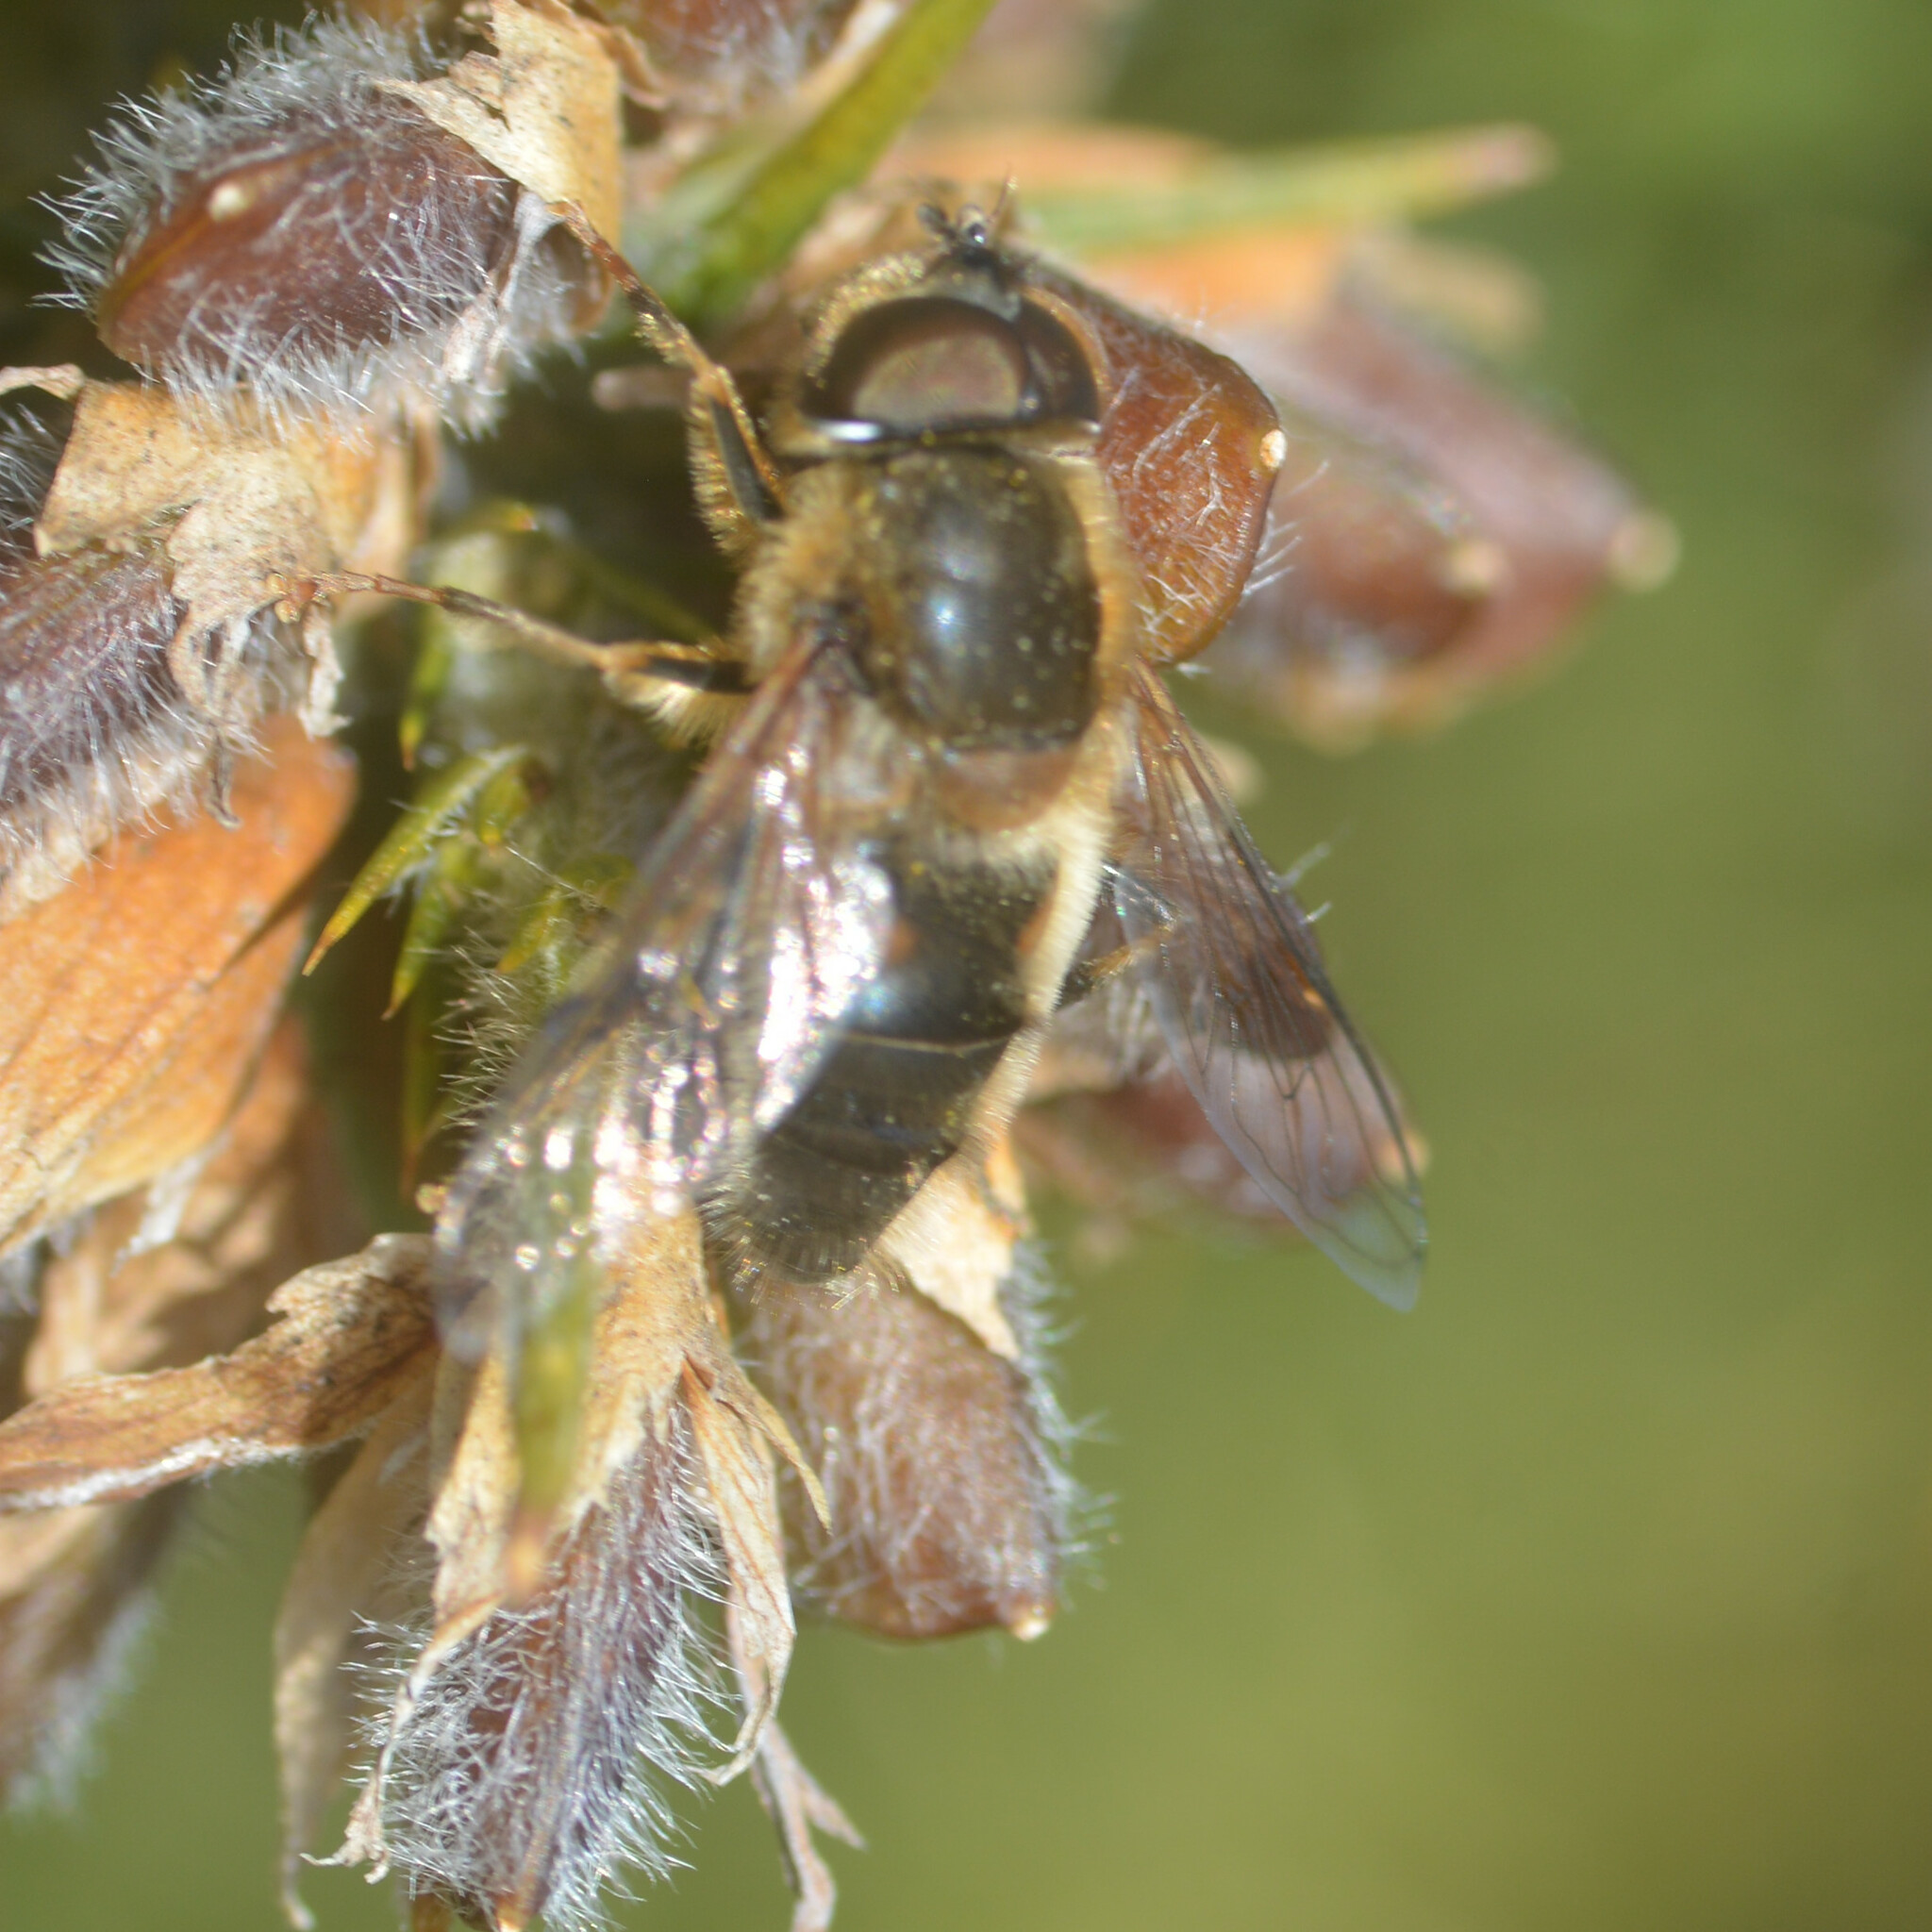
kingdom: Animalia
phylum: Arthropoda
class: Insecta
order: Diptera
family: Syrphidae
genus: Eristalis
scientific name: Eristalis pertinax
